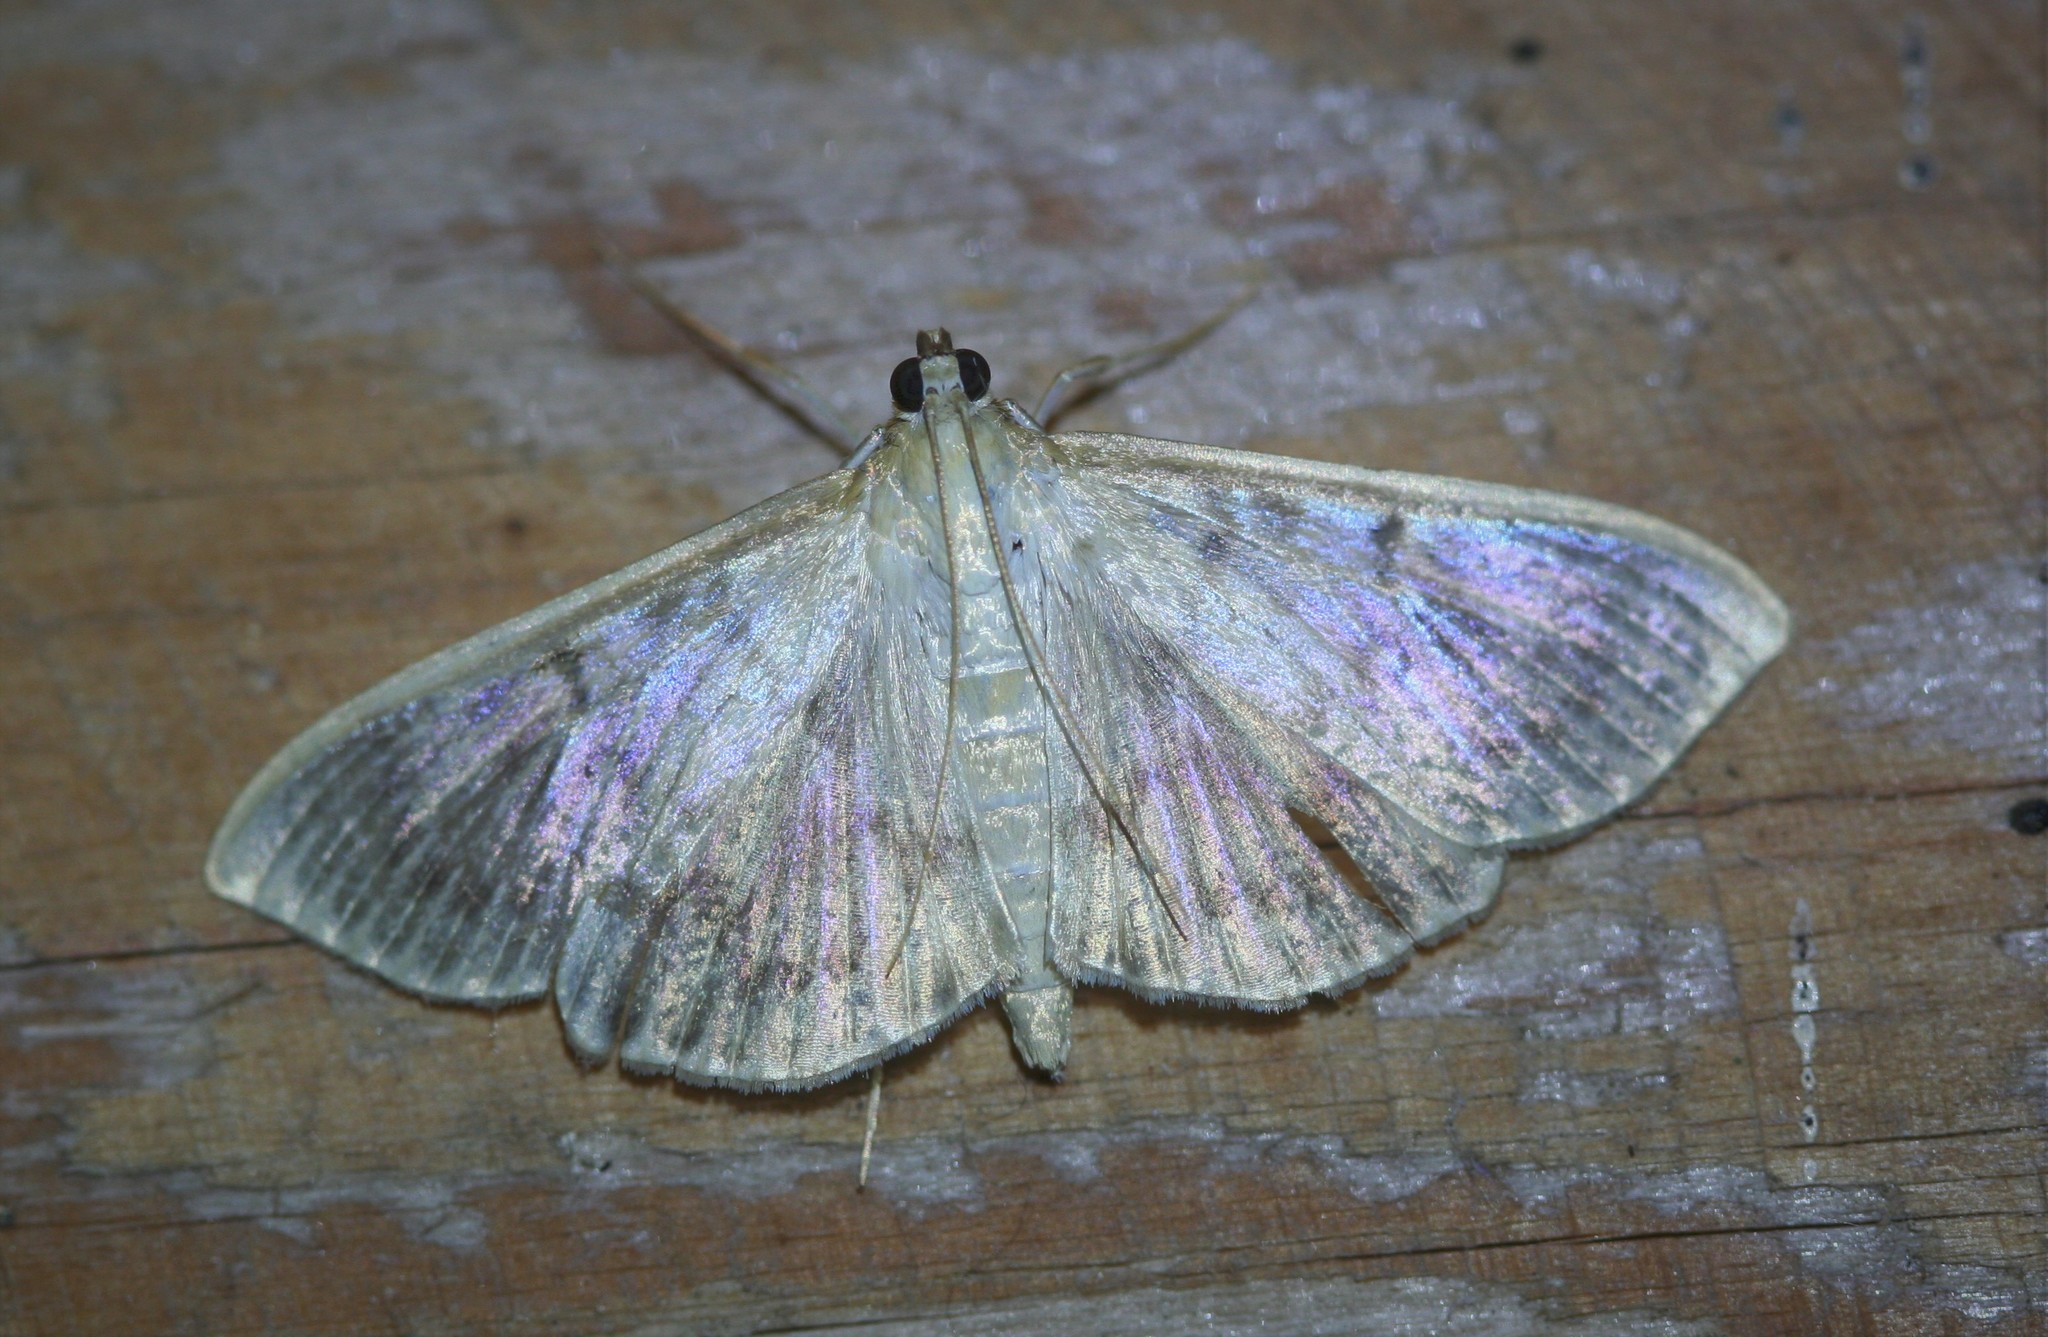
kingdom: Animalia
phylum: Arthropoda
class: Insecta
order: Lepidoptera
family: Crambidae
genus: Patania
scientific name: Patania ruralis
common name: Mother of pearl
